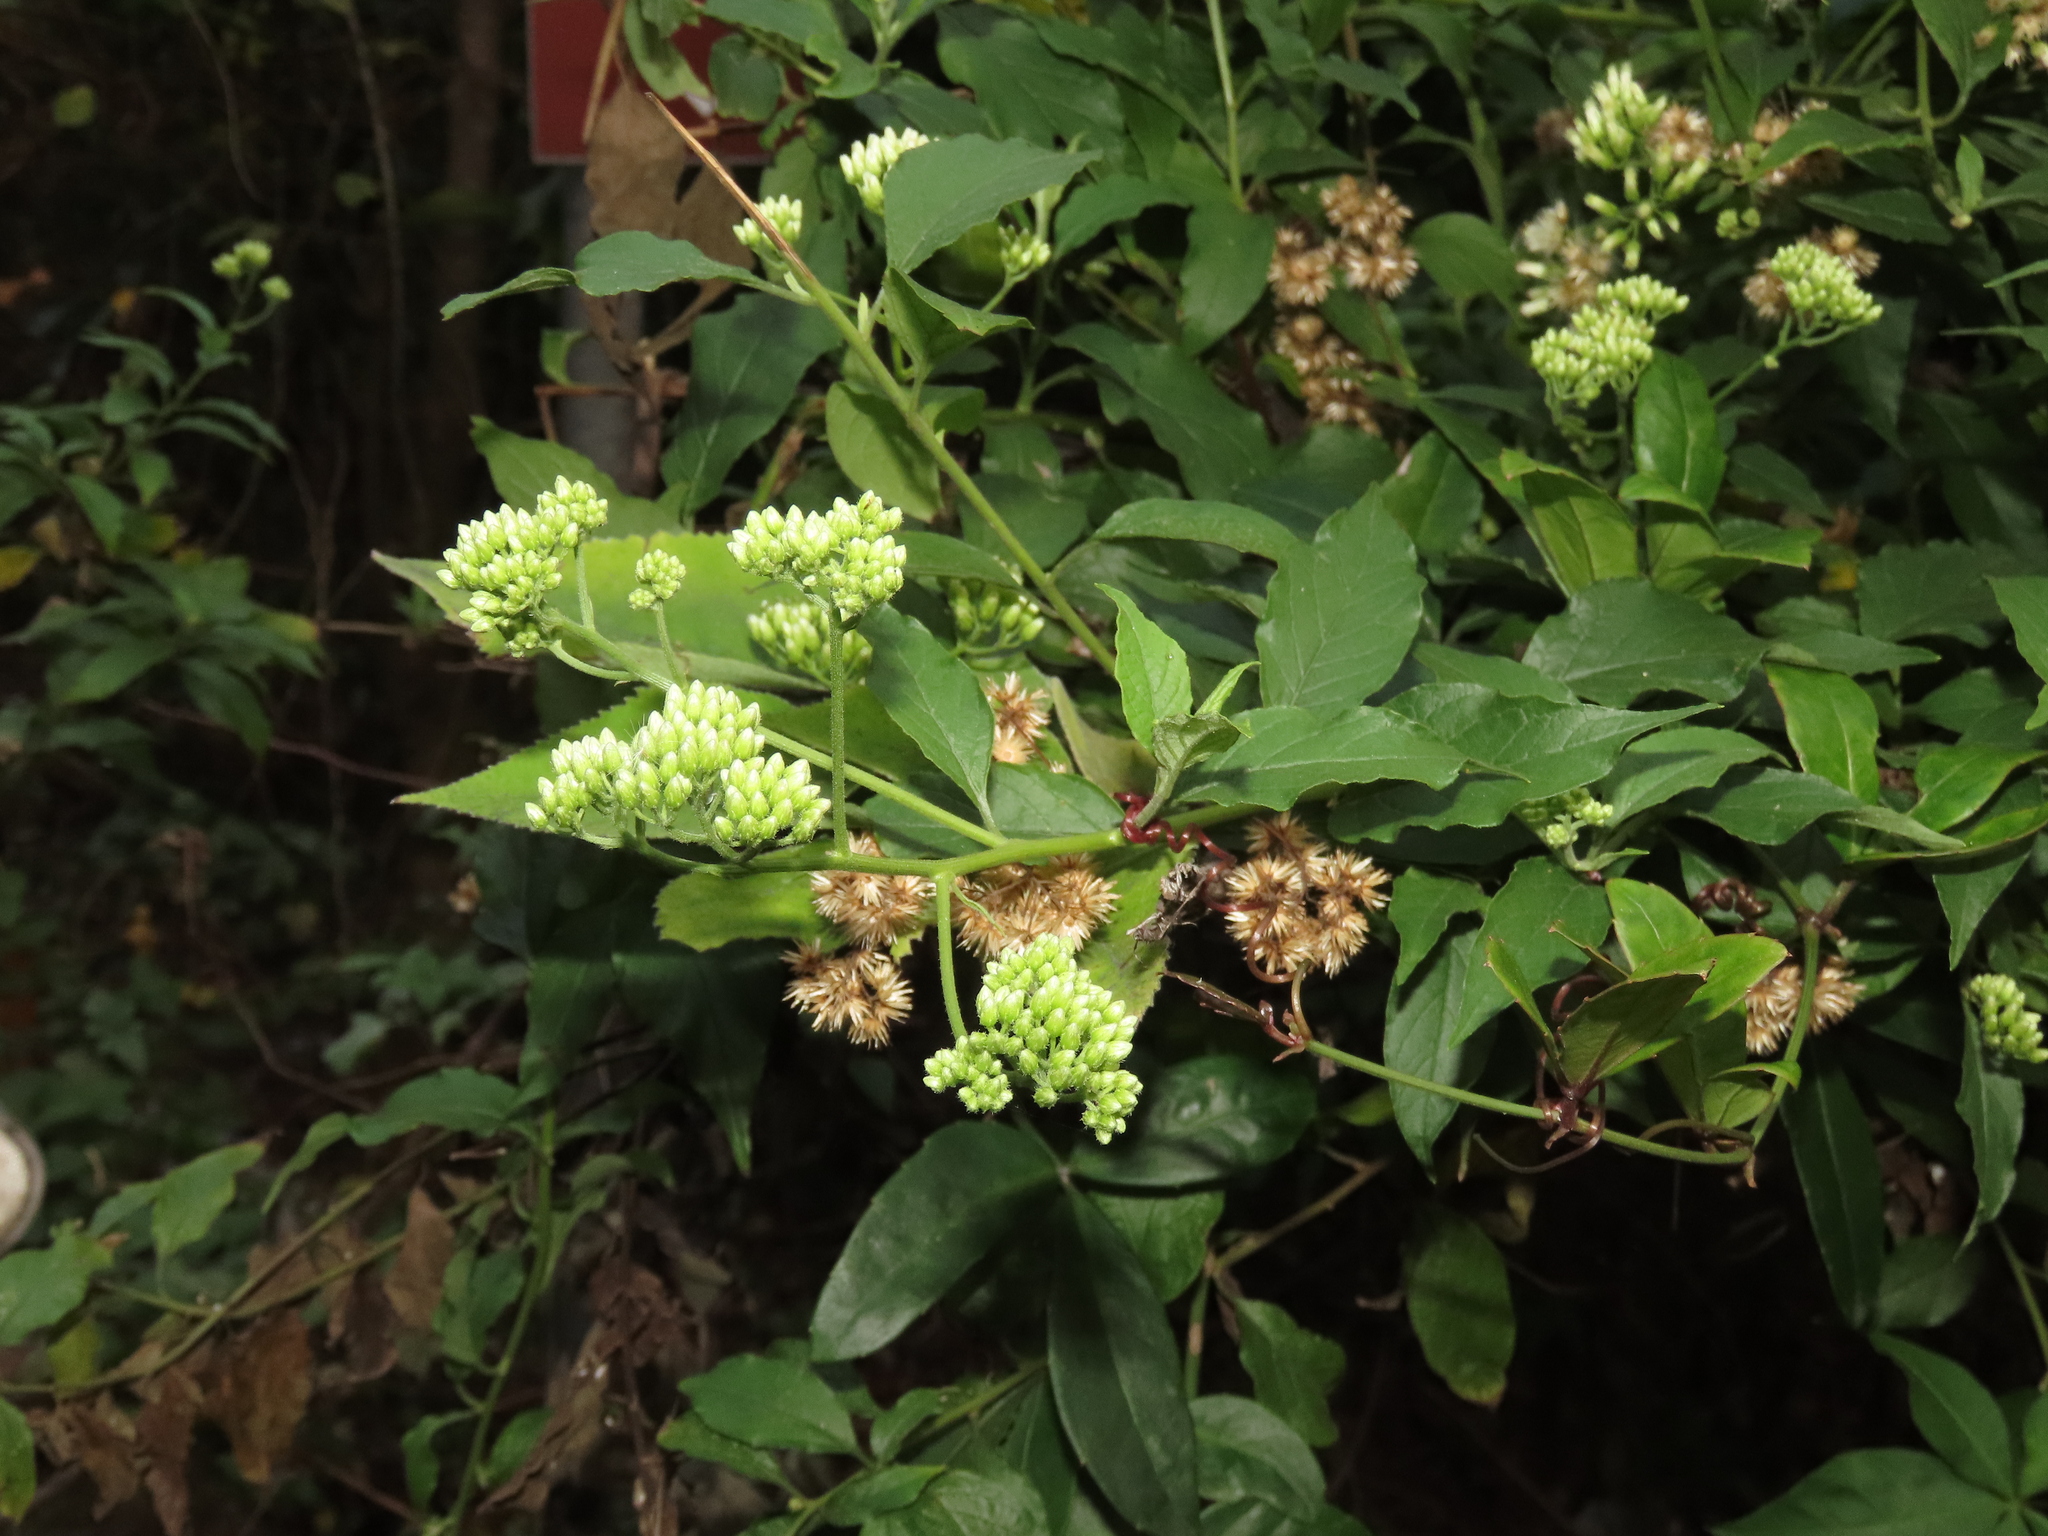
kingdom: Plantae
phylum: Tracheophyta
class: Magnoliopsida
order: Asterales
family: Asteraceae
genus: Microglossa
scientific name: Microglossa pyrifolia
